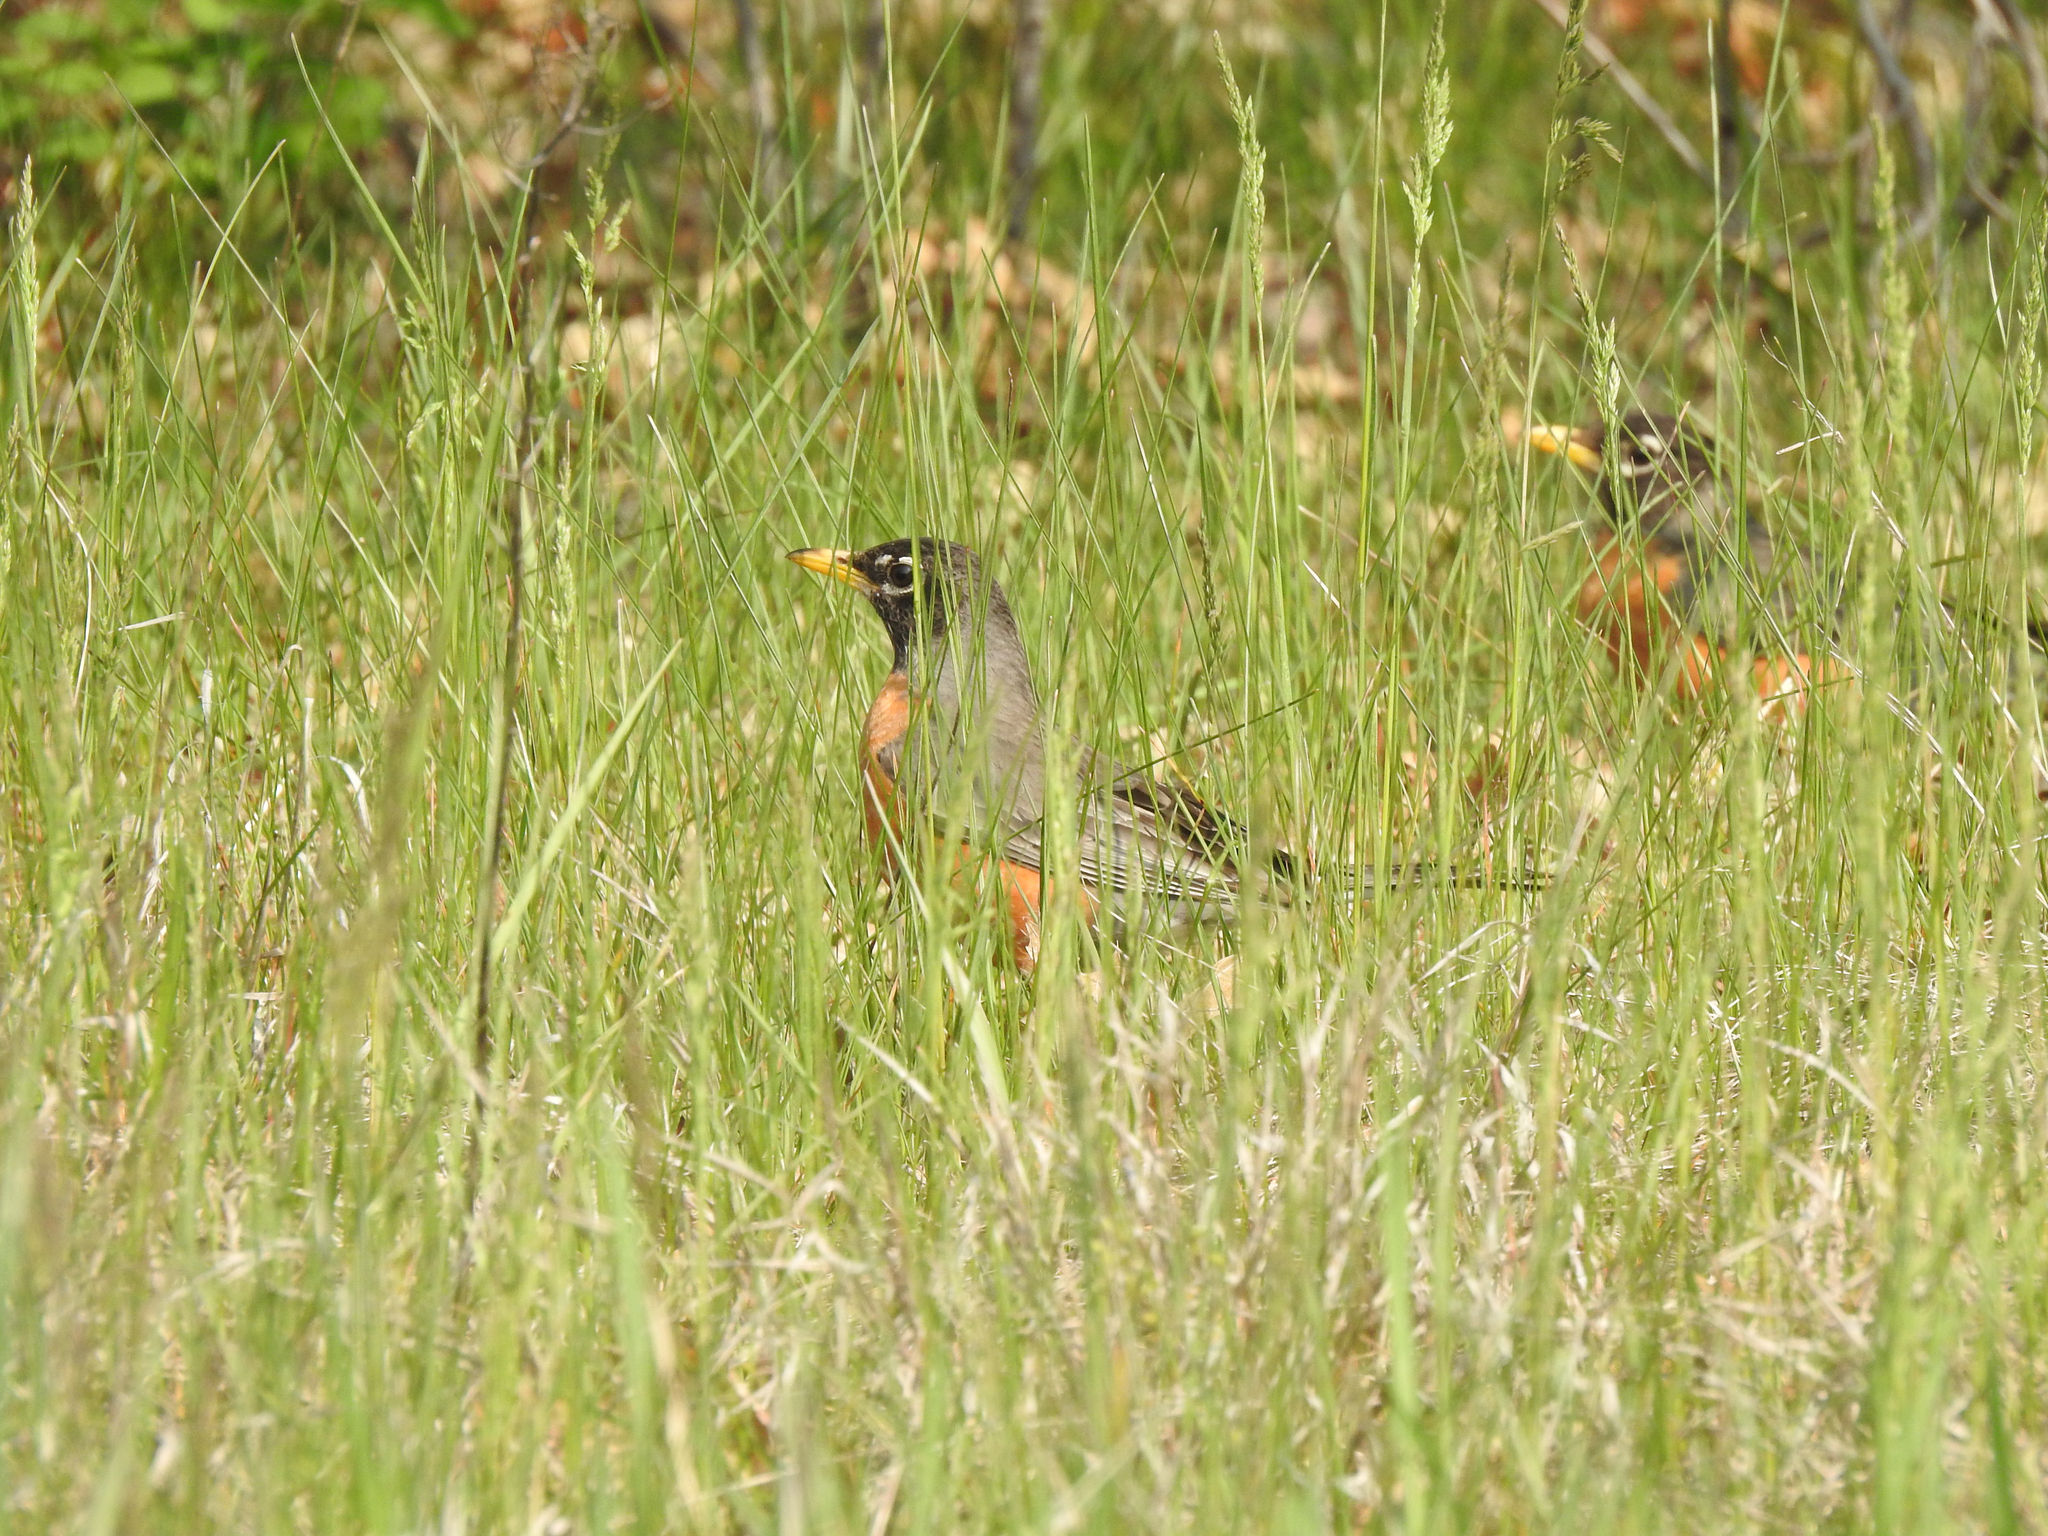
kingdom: Animalia
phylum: Chordata
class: Aves
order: Passeriformes
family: Turdidae
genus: Turdus
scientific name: Turdus migratorius
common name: American robin
